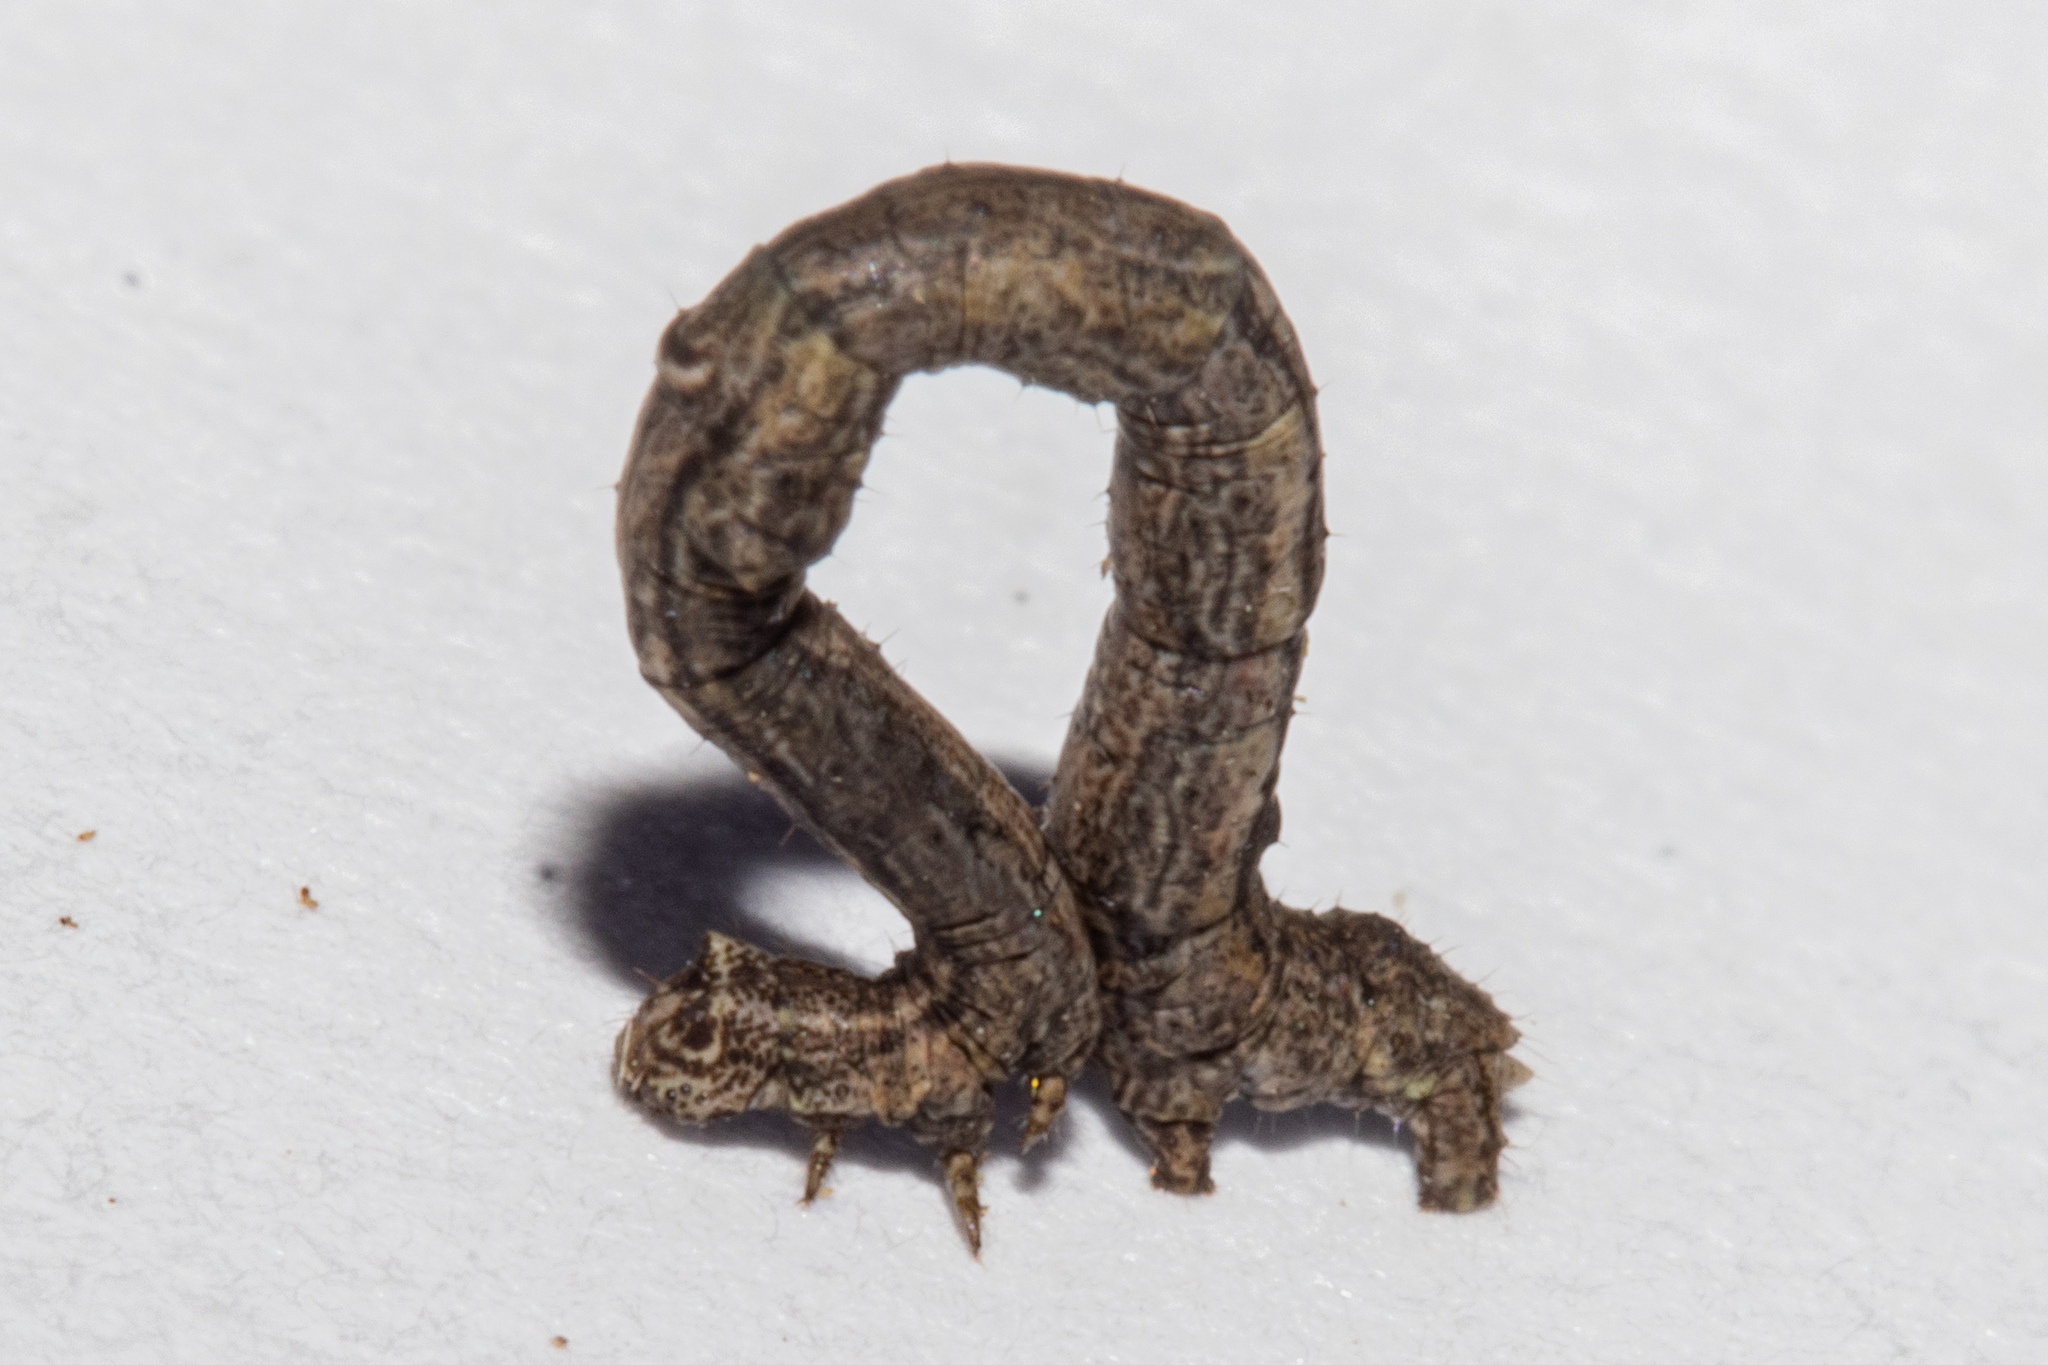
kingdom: Animalia
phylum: Arthropoda
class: Insecta
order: Lepidoptera
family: Geometridae
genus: Pseudocoremia
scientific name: Pseudocoremia rudisata
